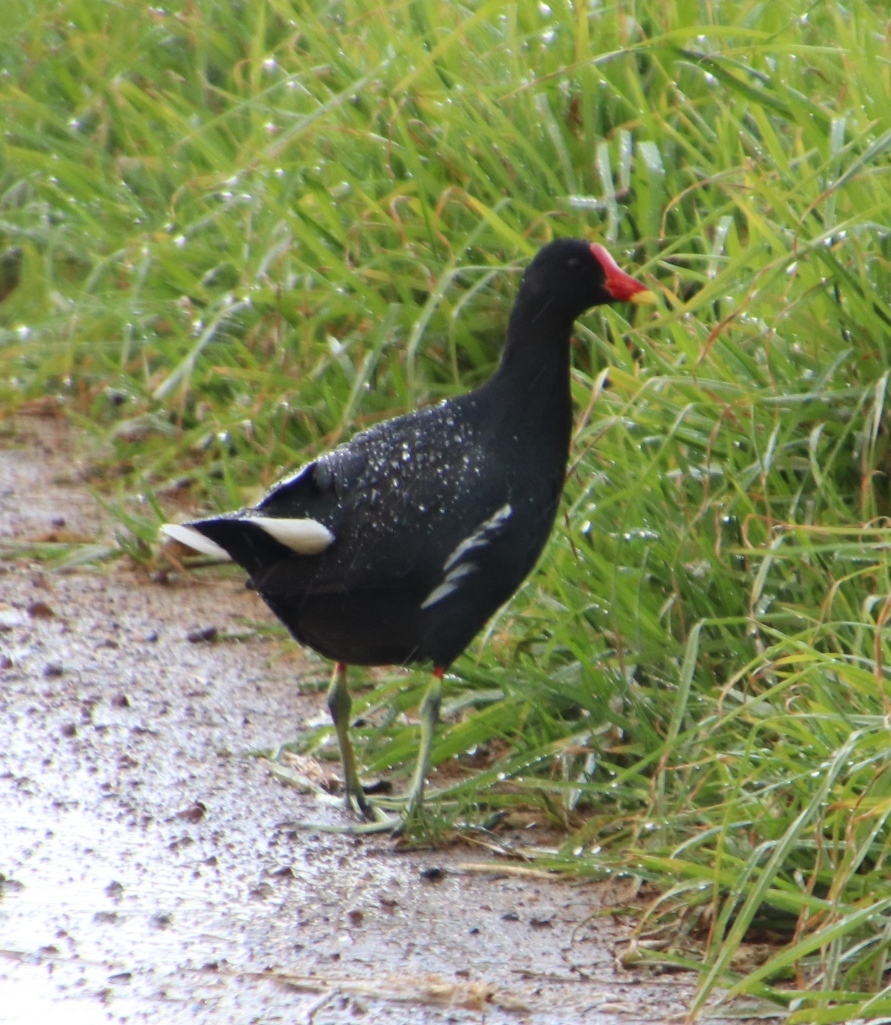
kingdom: Animalia
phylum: Chordata
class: Aves
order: Gruiformes
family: Rallidae
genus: Gallinula
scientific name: Gallinula chloropus
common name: Common moorhen
